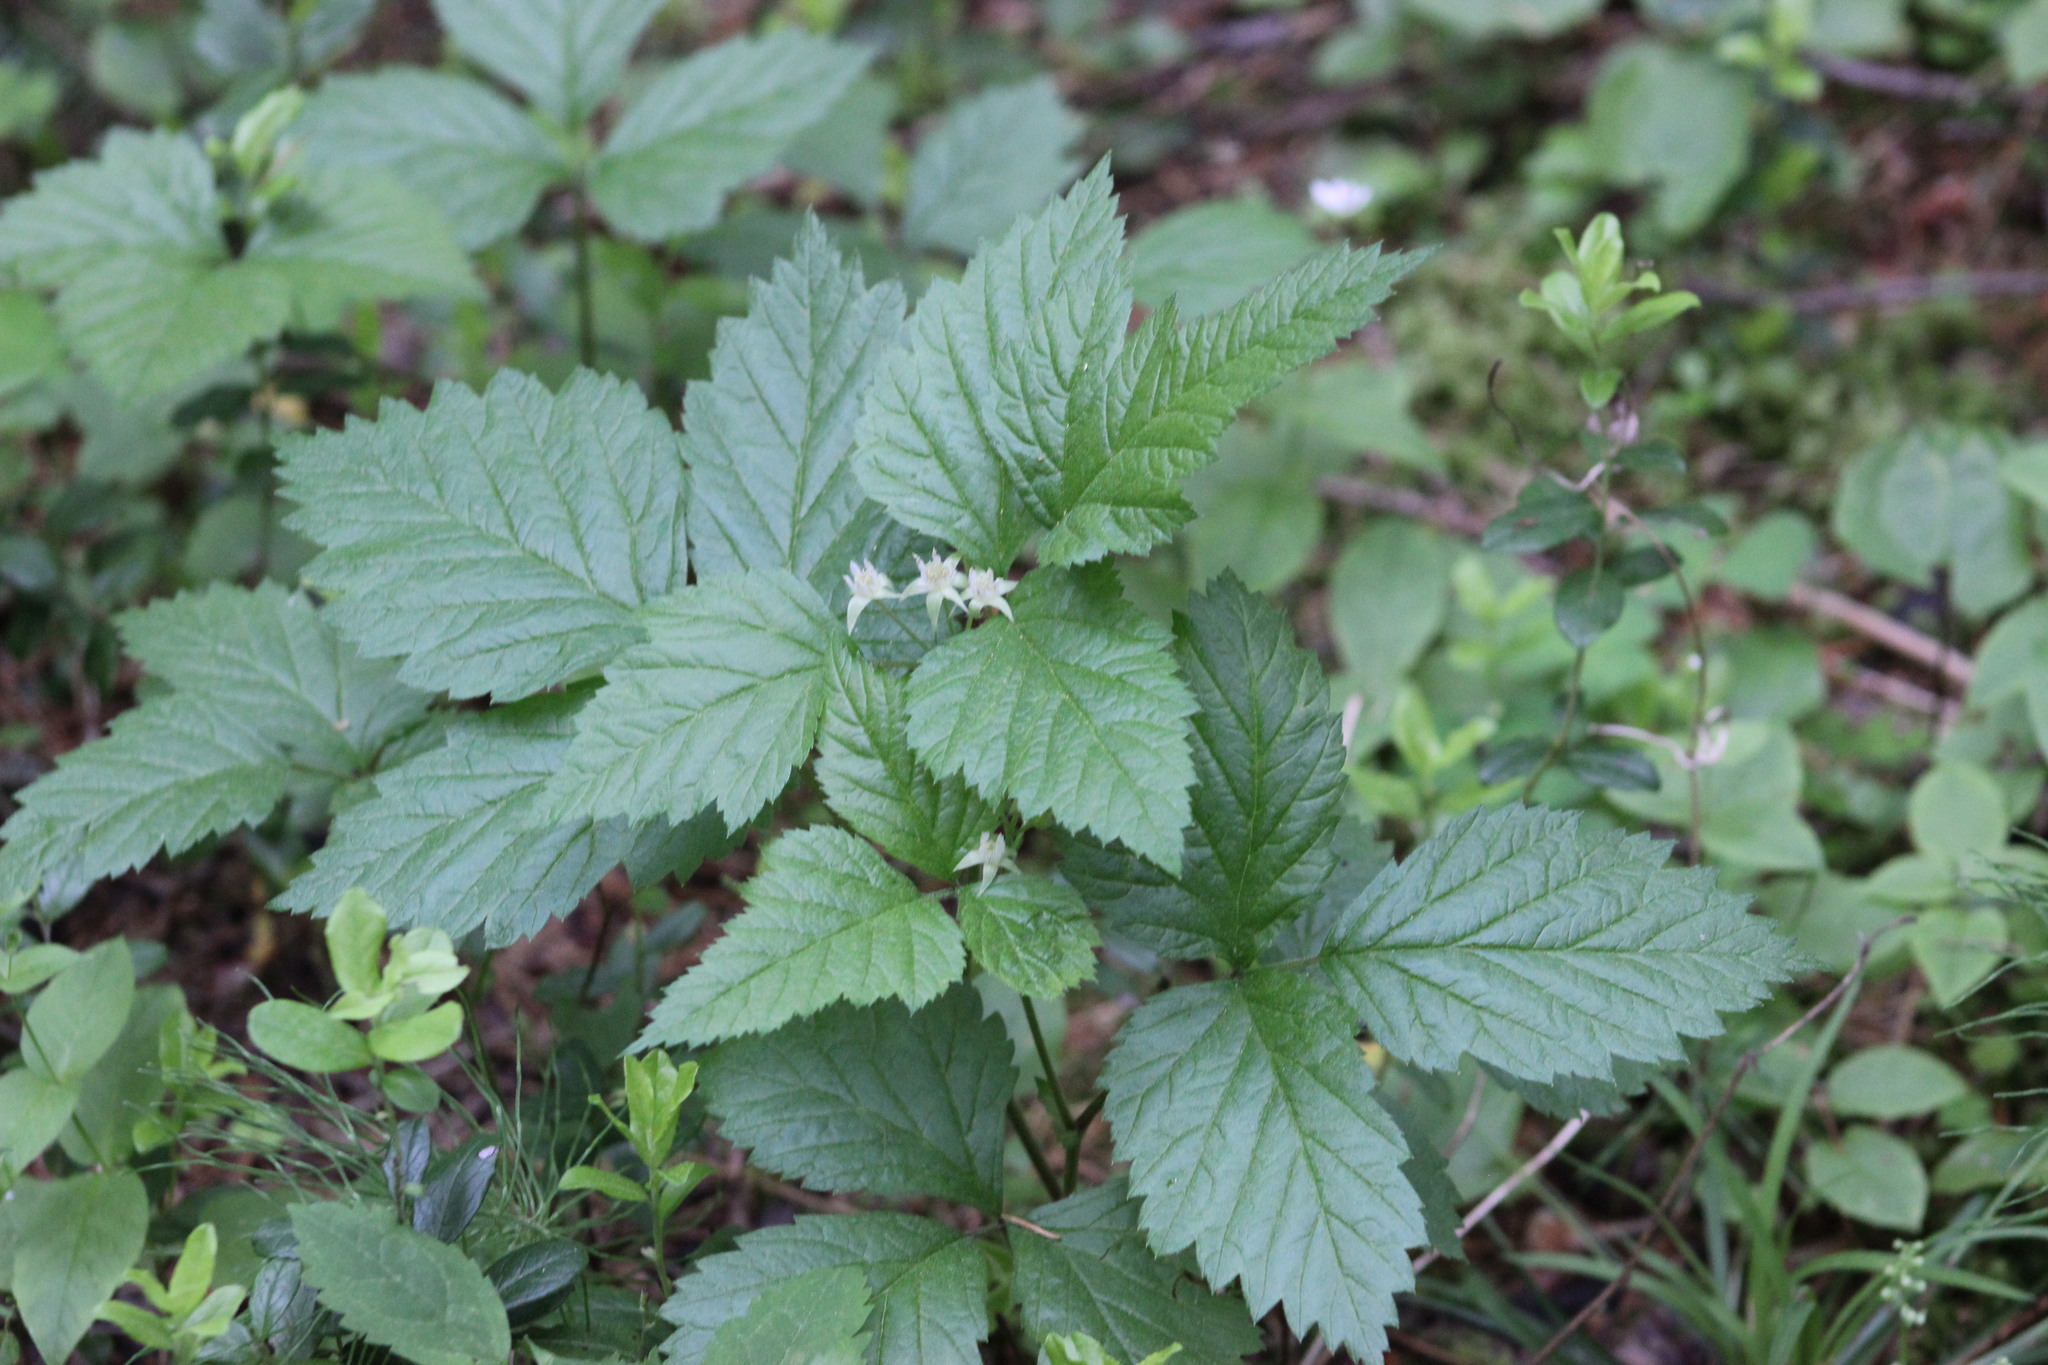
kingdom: Plantae
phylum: Tracheophyta
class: Magnoliopsida
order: Rosales
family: Rosaceae
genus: Rubus
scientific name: Rubus saxatilis
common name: Stone bramble
